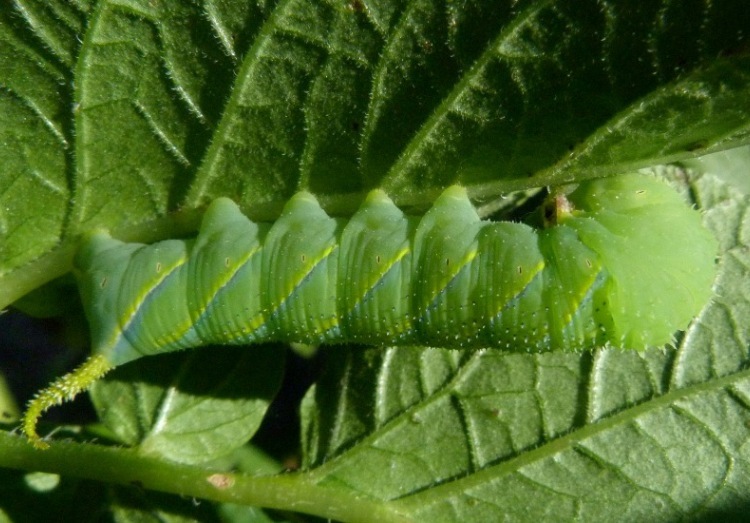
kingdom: Animalia
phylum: Arthropoda
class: Insecta
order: Lepidoptera
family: Sphingidae
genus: Acherontia
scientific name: Acherontia atropos
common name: Death's-head hawk moth
